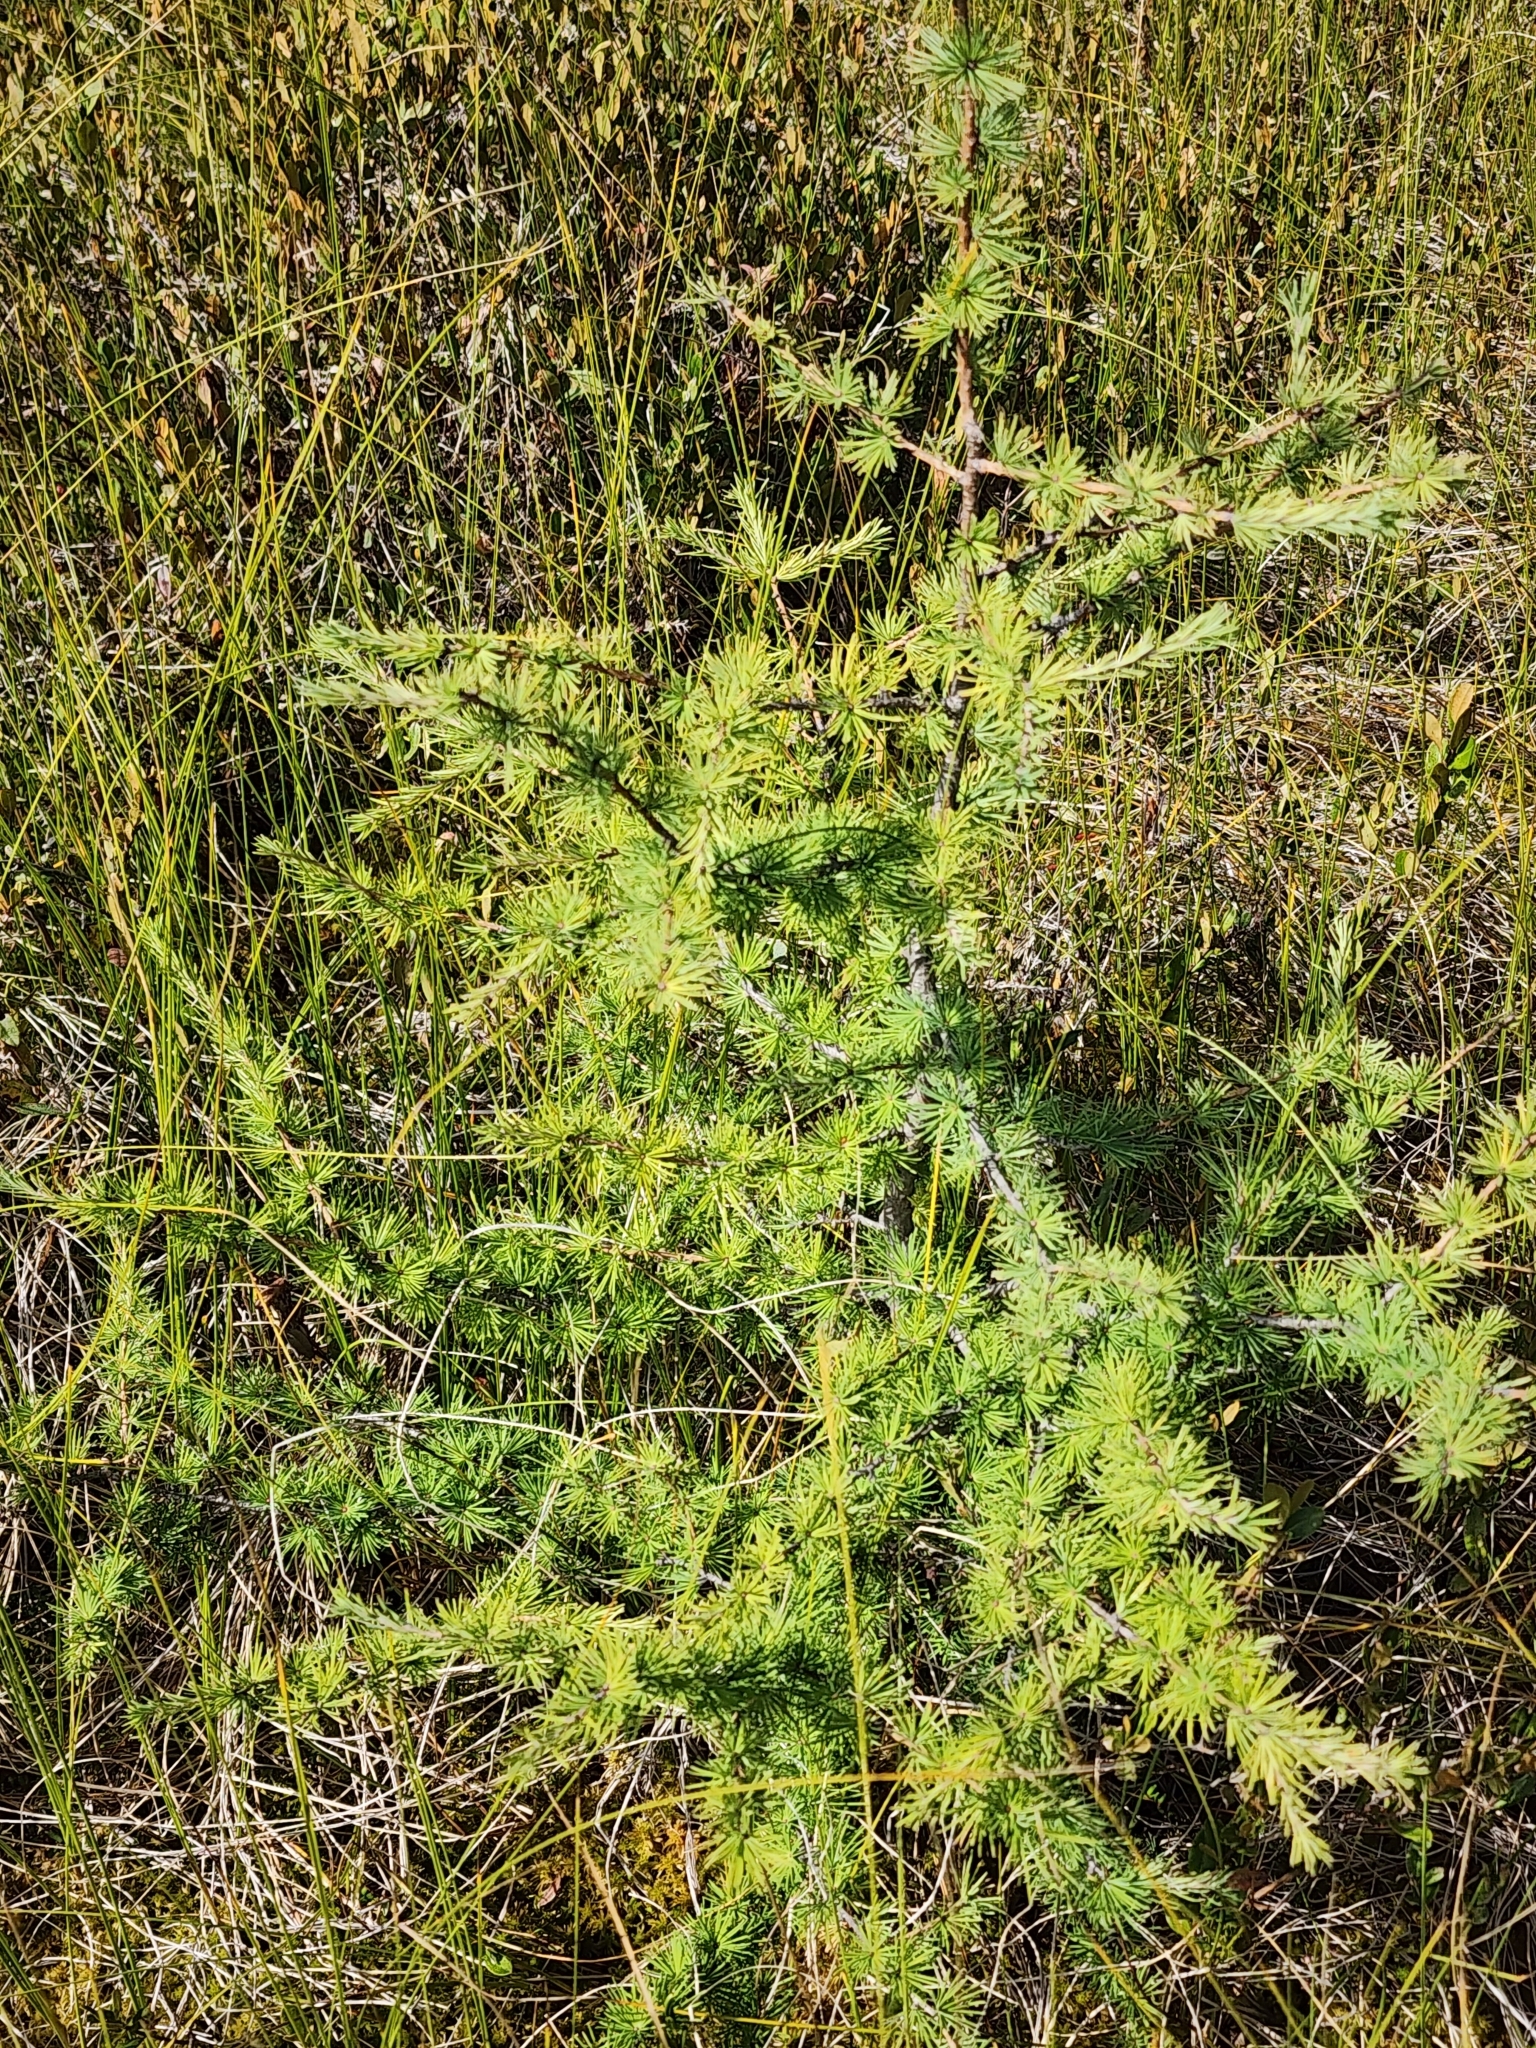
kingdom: Plantae
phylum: Tracheophyta
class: Pinopsida
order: Pinales
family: Pinaceae
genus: Larix
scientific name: Larix laricina
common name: American larch
